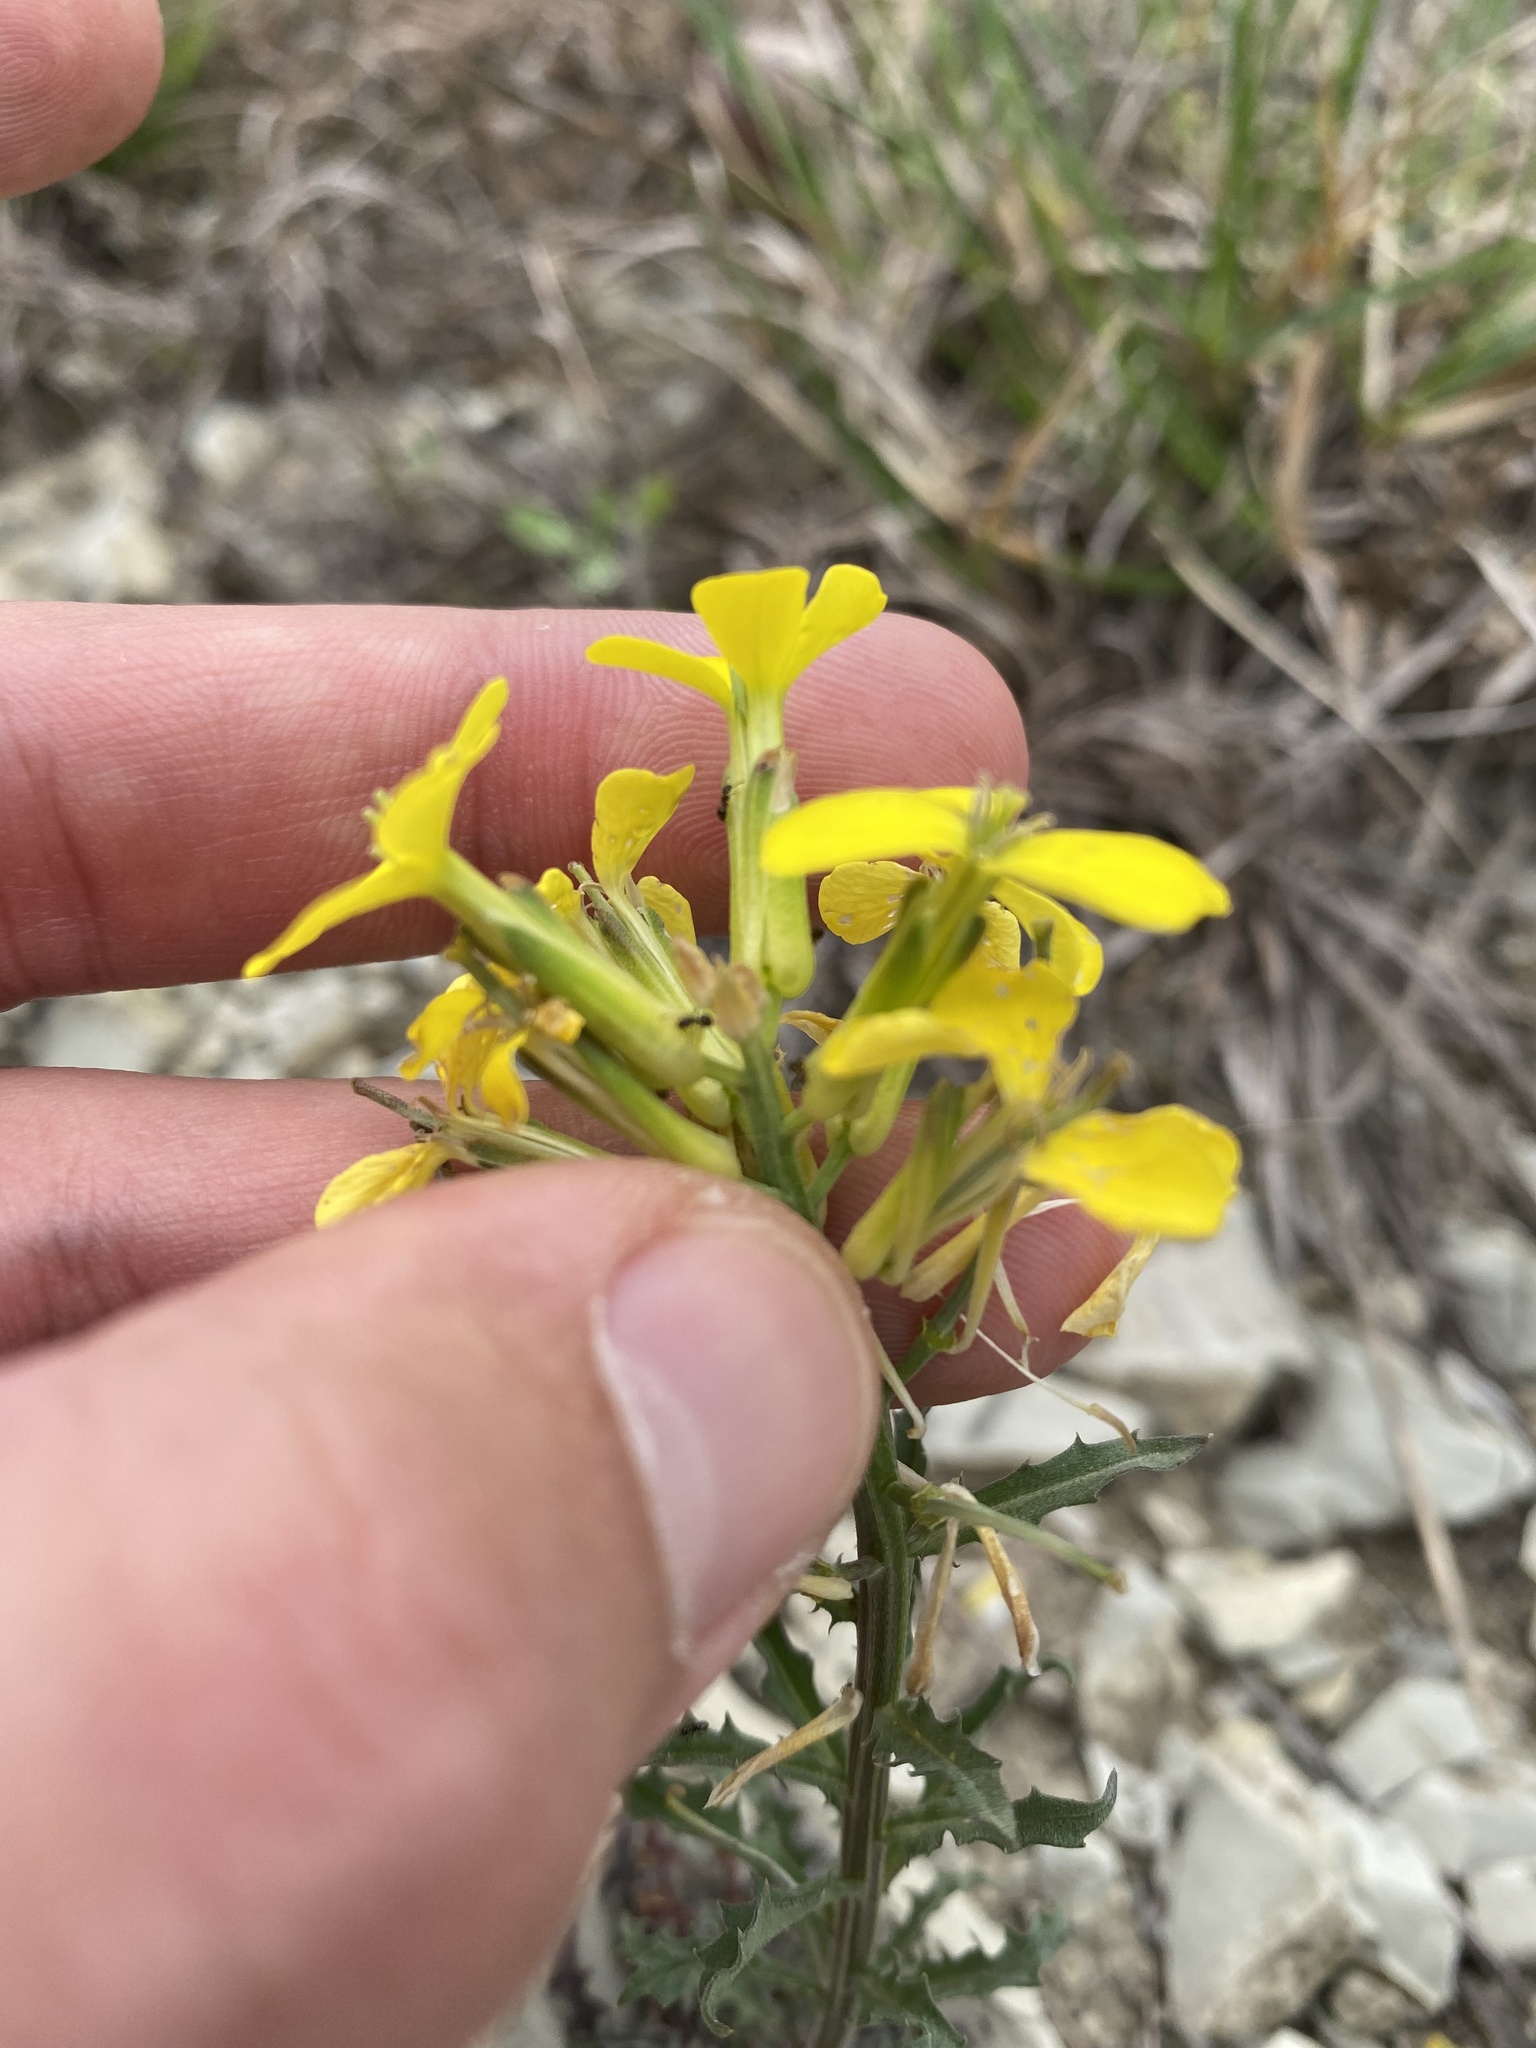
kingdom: Plantae
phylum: Tracheophyta
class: Magnoliopsida
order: Brassicales
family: Brassicaceae
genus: Erysimum
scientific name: Erysimum callicarpum
